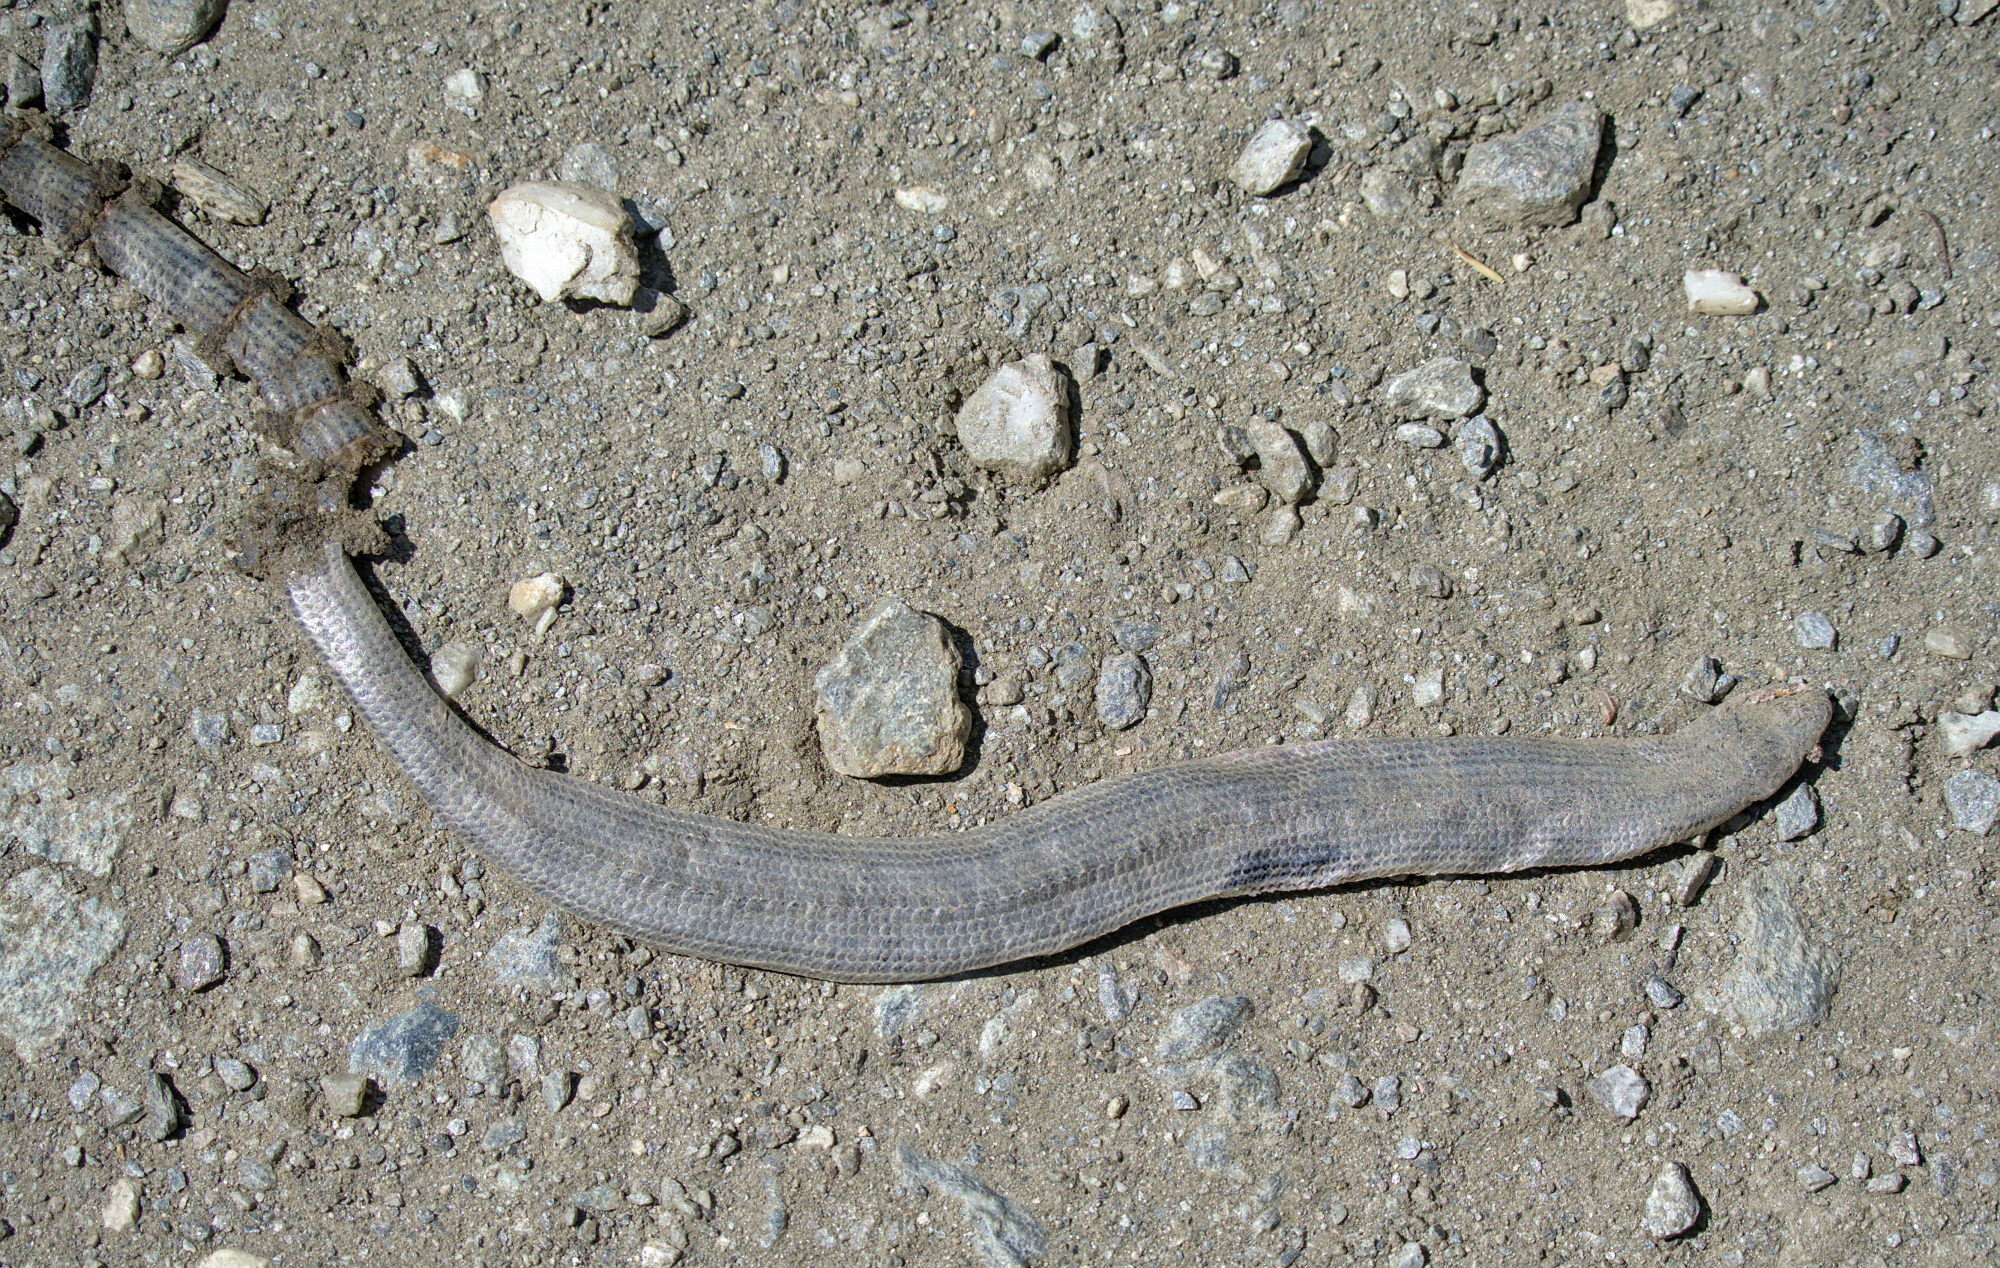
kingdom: Animalia
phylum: Chordata
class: Squamata
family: Anguidae
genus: Anguis
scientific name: Anguis veronensis
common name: Italian slow worm
